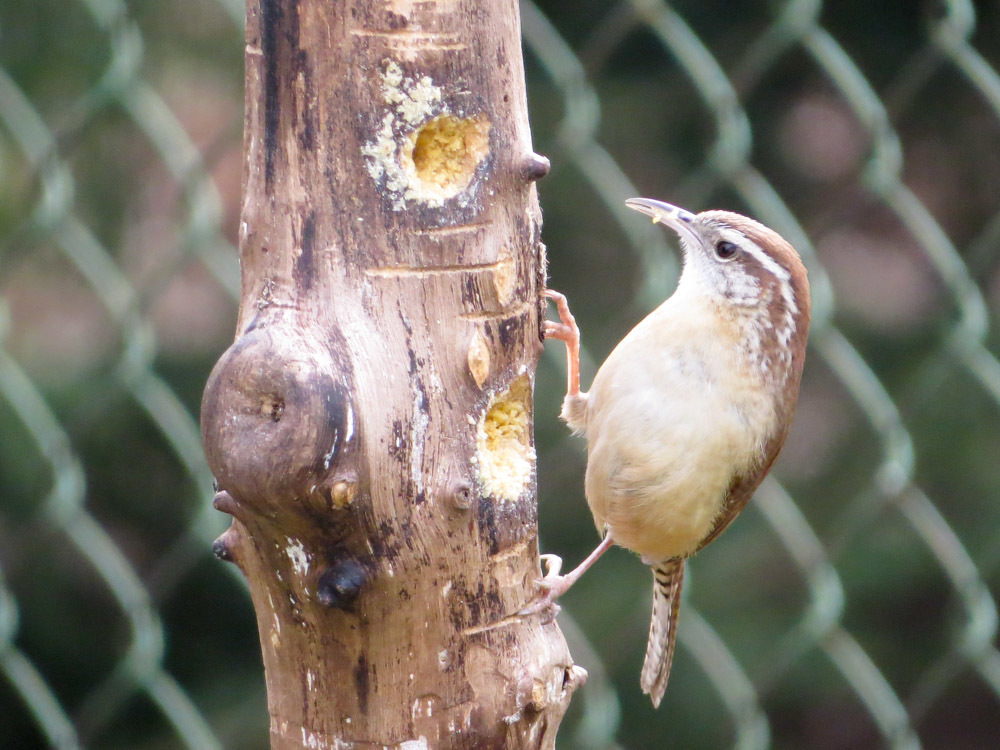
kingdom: Animalia
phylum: Chordata
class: Aves
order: Passeriformes
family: Troglodytidae
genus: Thryothorus
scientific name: Thryothorus ludovicianus
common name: Carolina wren
